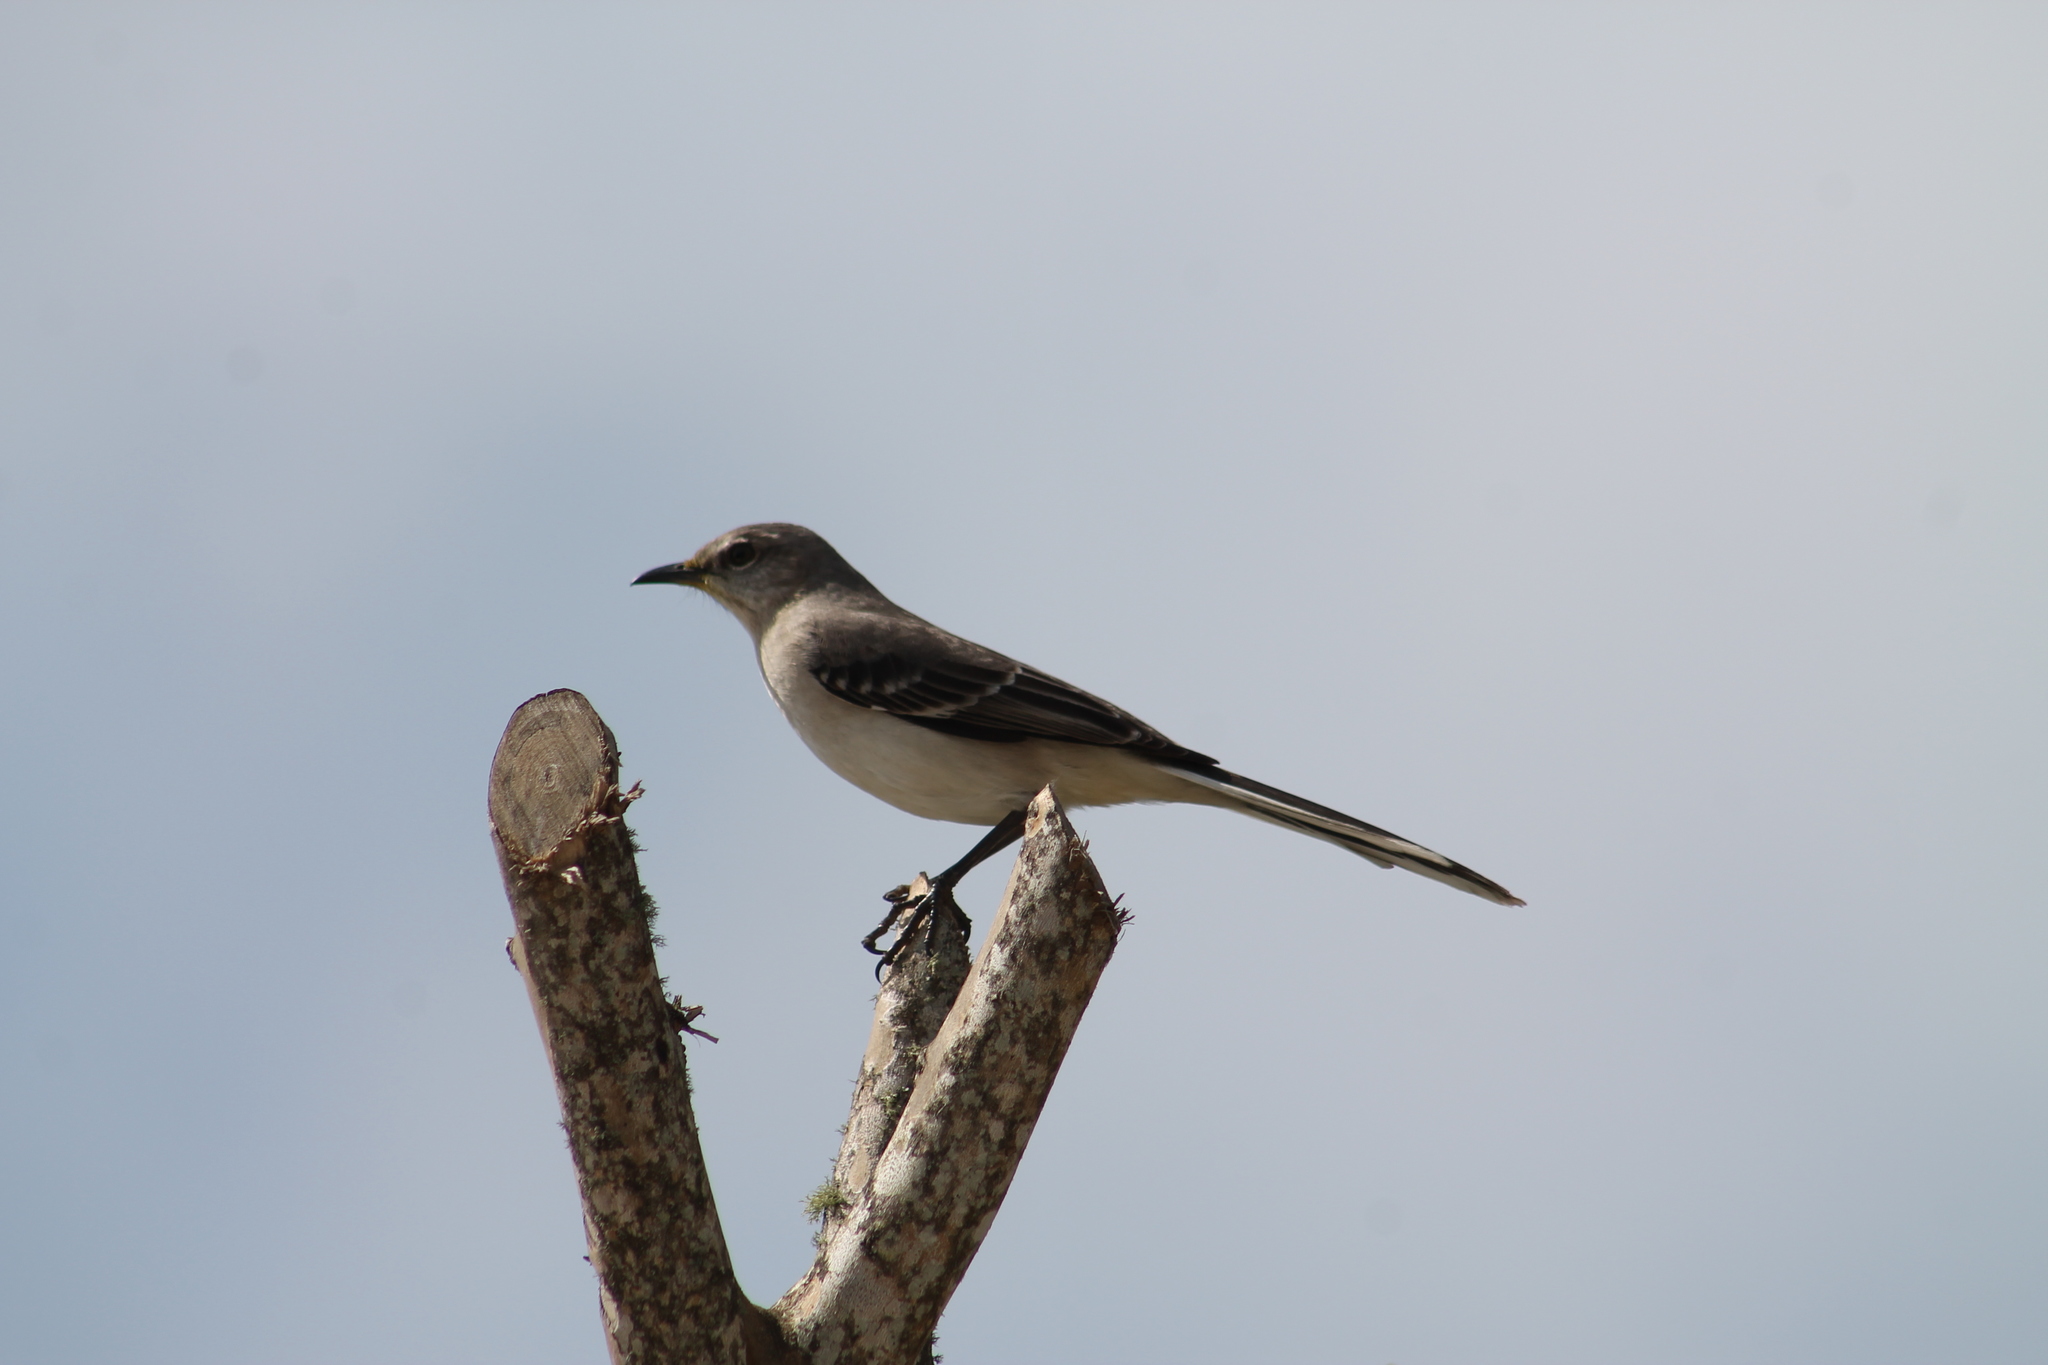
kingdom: Animalia
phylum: Chordata
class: Aves
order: Passeriformes
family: Mimidae
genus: Mimus
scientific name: Mimus polyglottos
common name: Northern mockingbird
